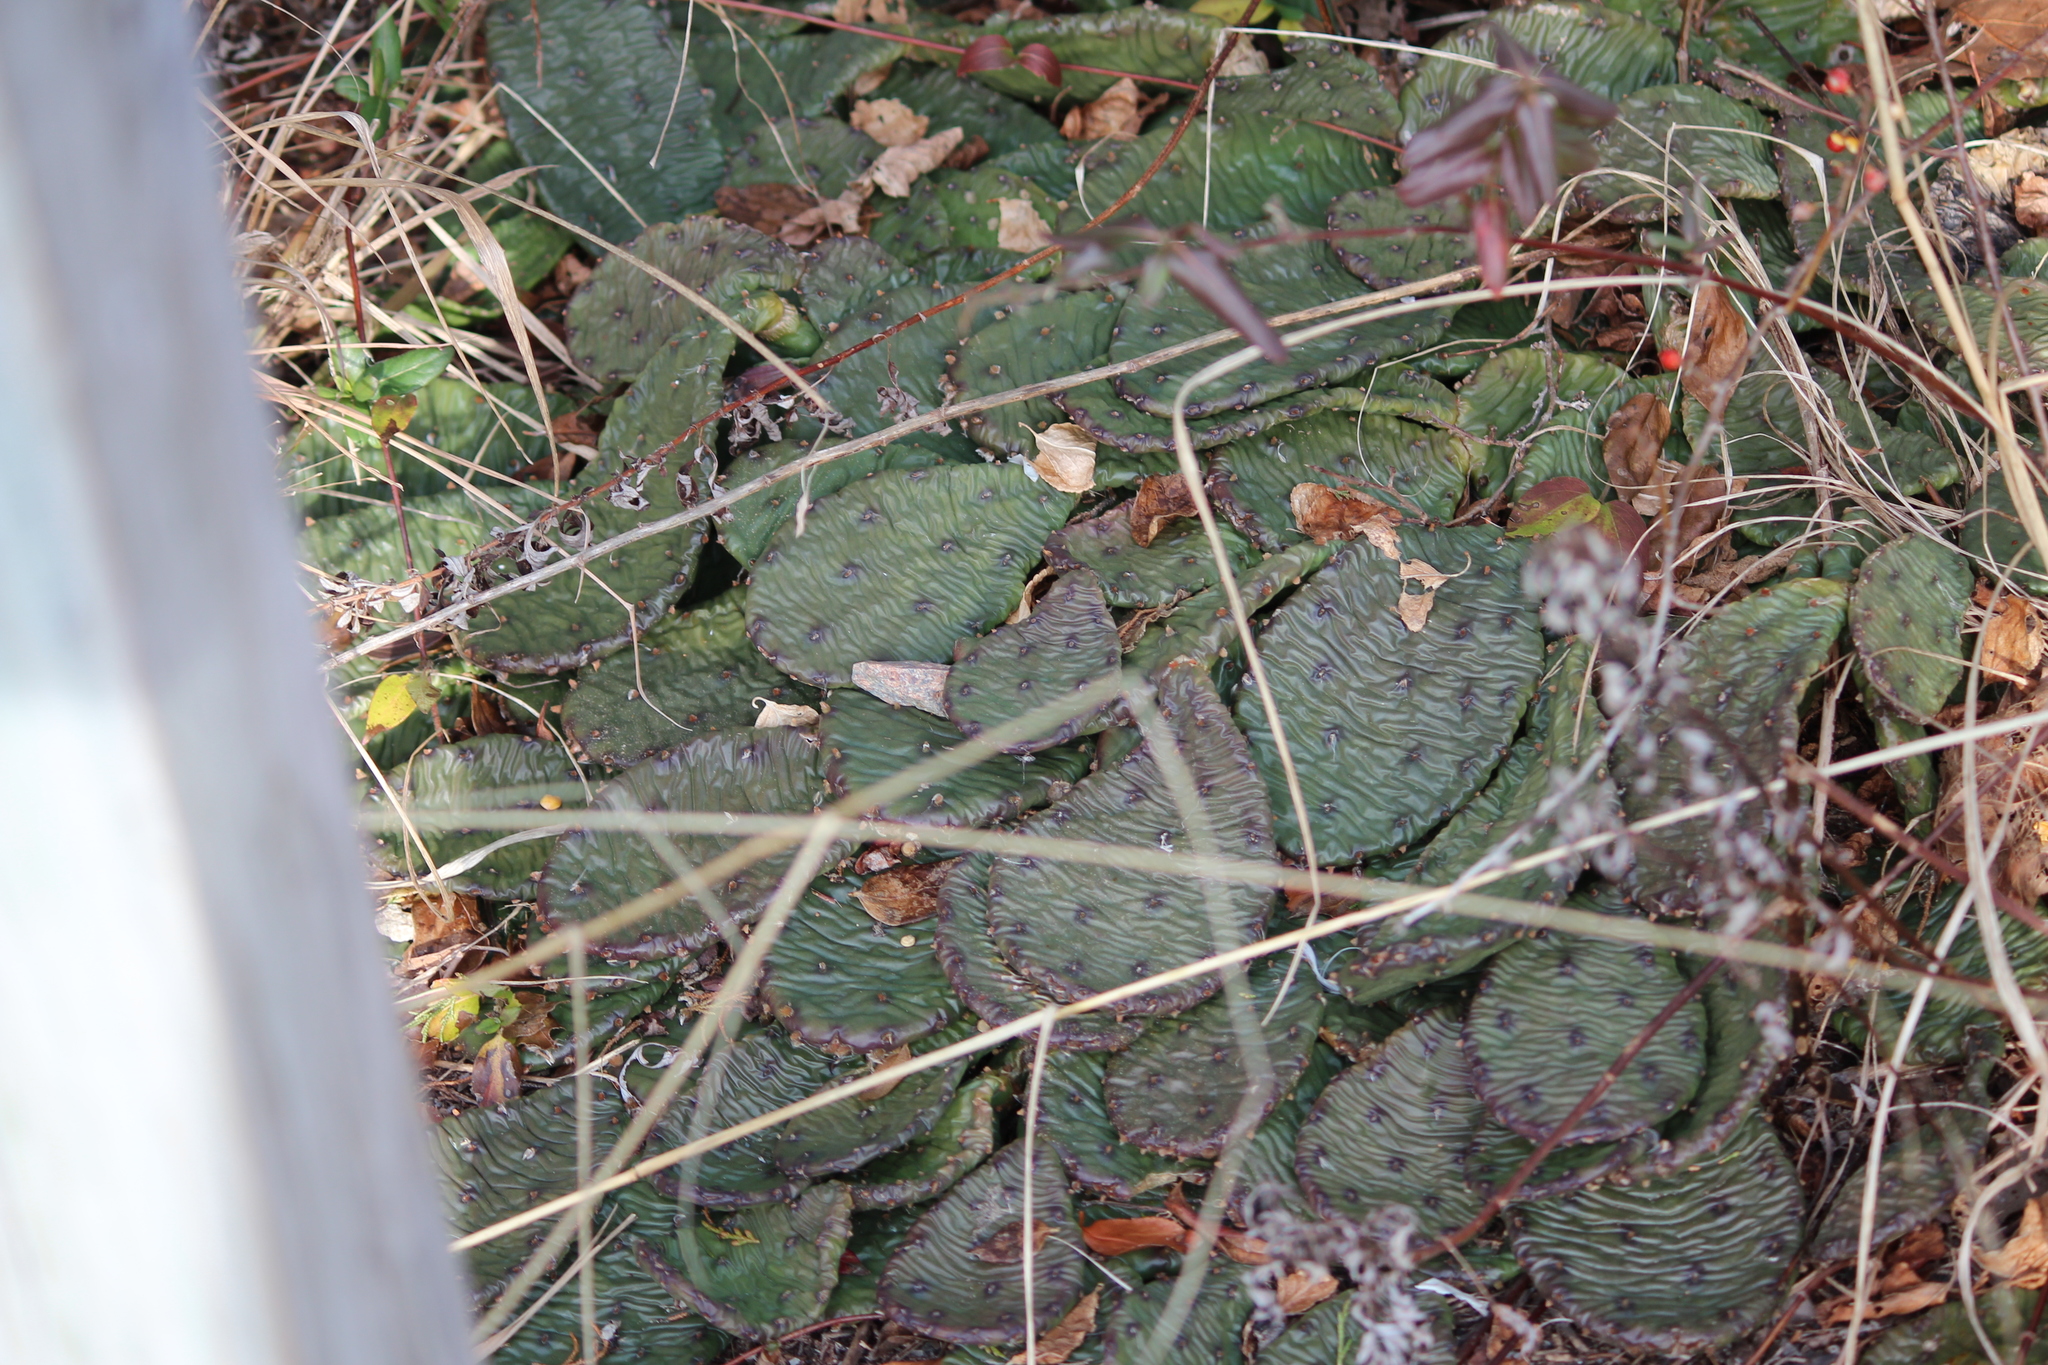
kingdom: Plantae
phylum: Tracheophyta
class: Magnoliopsida
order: Caryophyllales
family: Cactaceae
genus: Opuntia
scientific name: Opuntia humifusa
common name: Eastern prickly-pear
